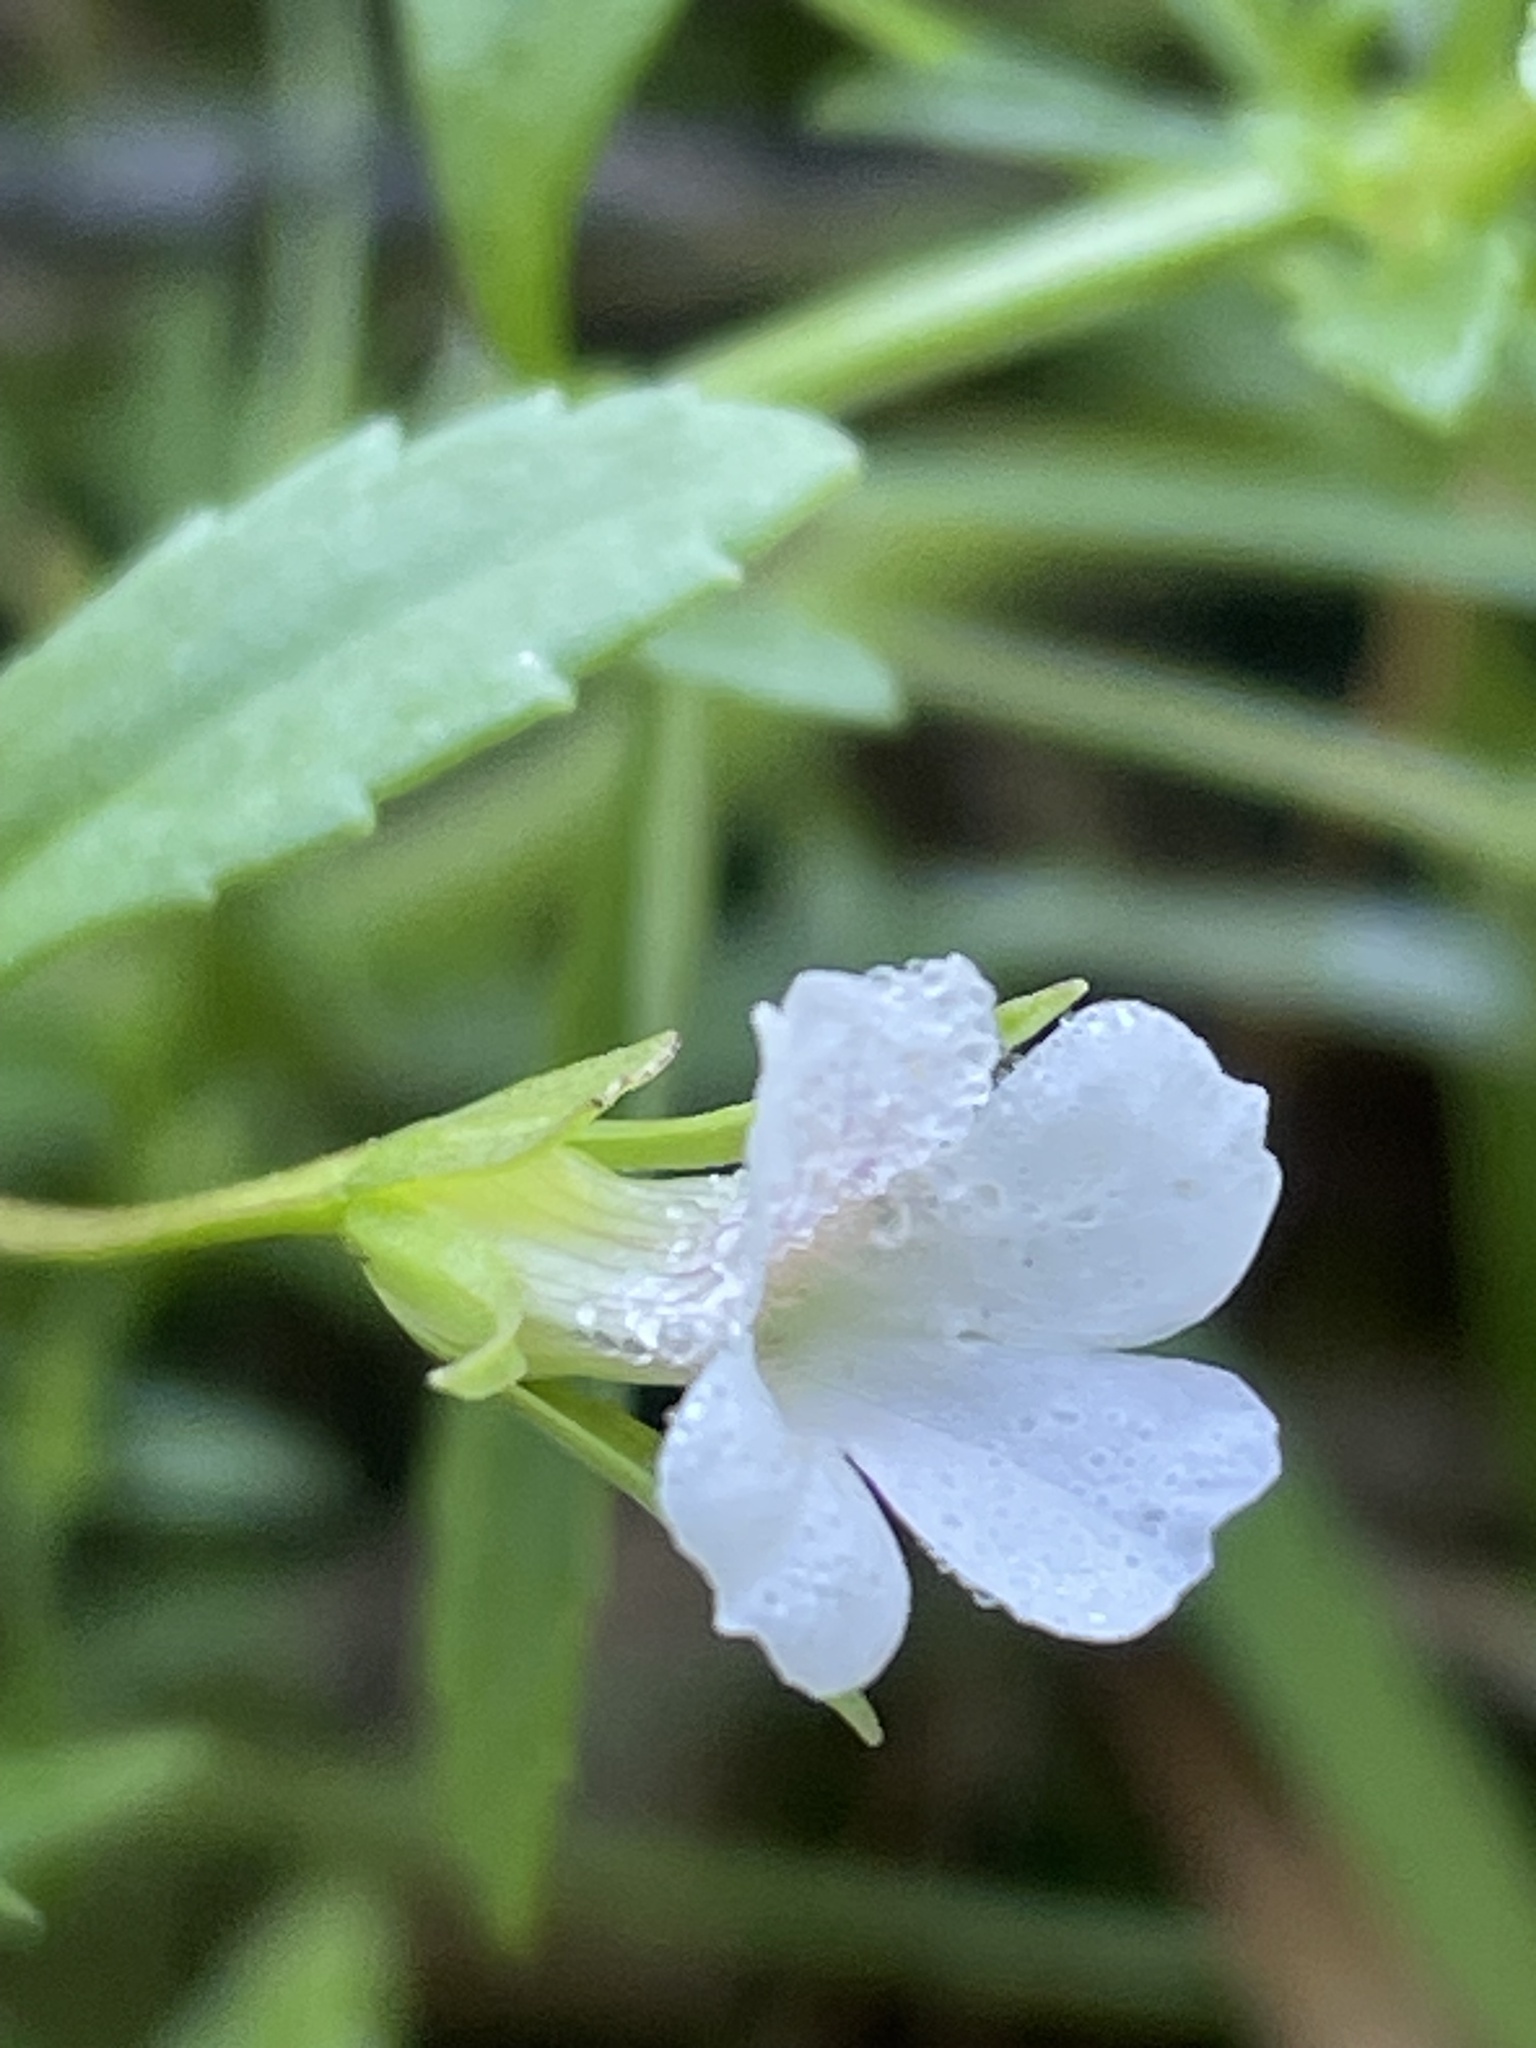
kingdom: Plantae
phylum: Tracheophyta
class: Magnoliopsida
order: Lamiales
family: Plantaginaceae
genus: Mecardonia
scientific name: Mecardonia acuminata
